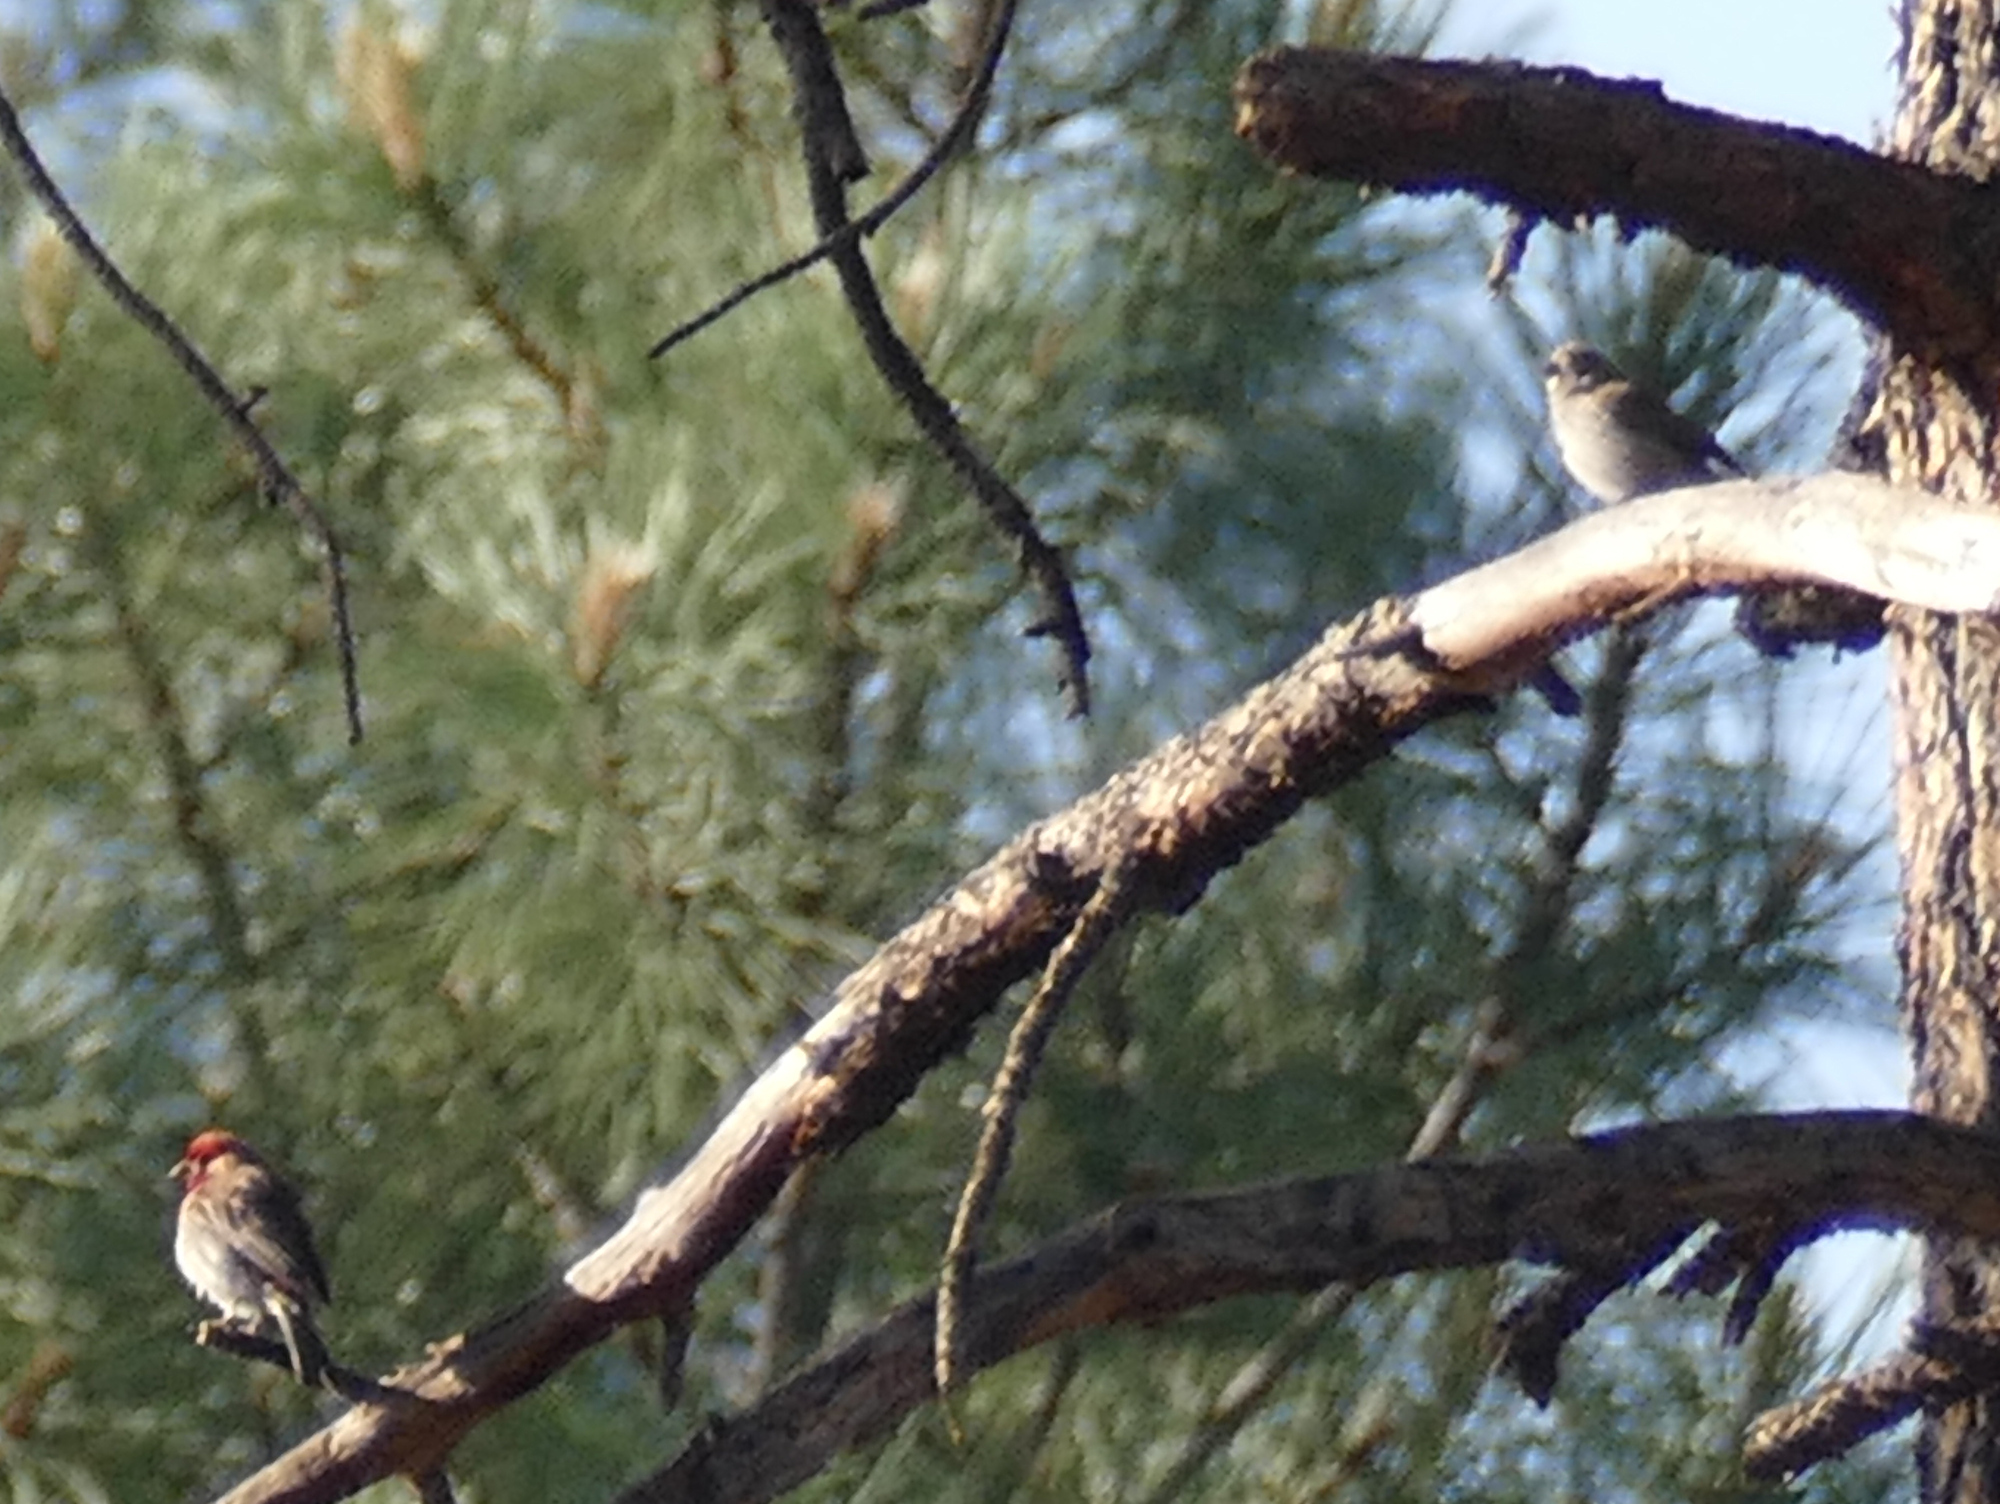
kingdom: Animalia
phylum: Chordata
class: Aves
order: Passeriformes
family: Fringillidae
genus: Haemorhous
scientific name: Haemorhous mexicanus
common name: House finch
